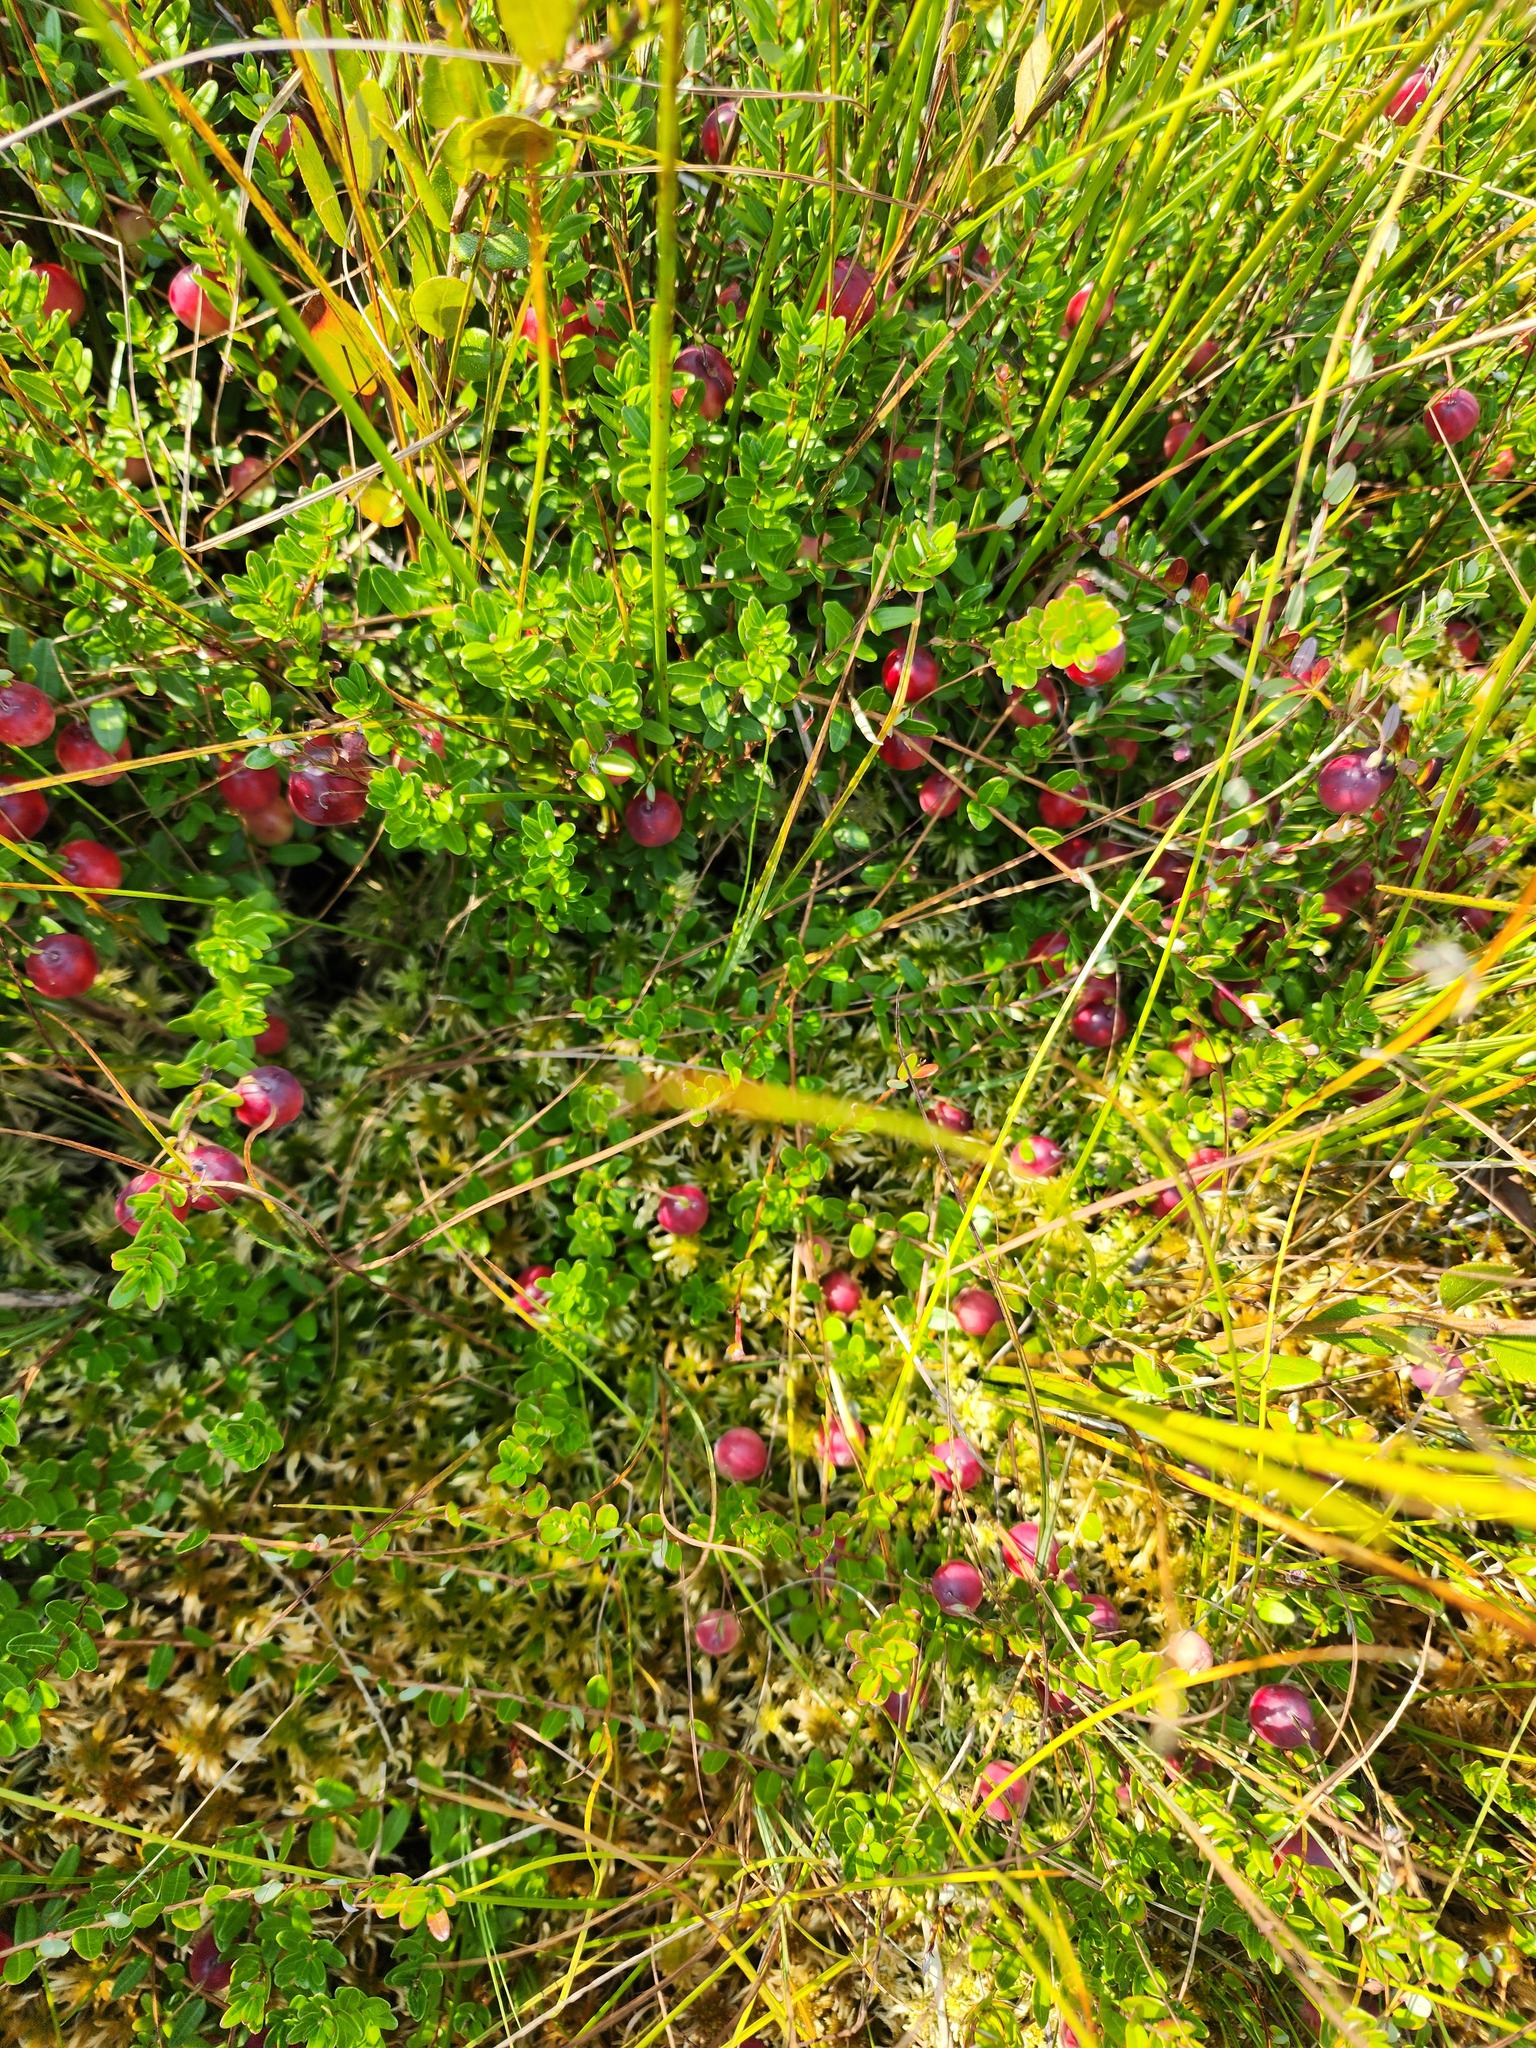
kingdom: Plantae
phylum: Tracheophyta
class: Magnoliopsida
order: Ericales
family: Ericaceae
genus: Vaccinium
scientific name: Vaccinium macrocarpon
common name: American cranberry
